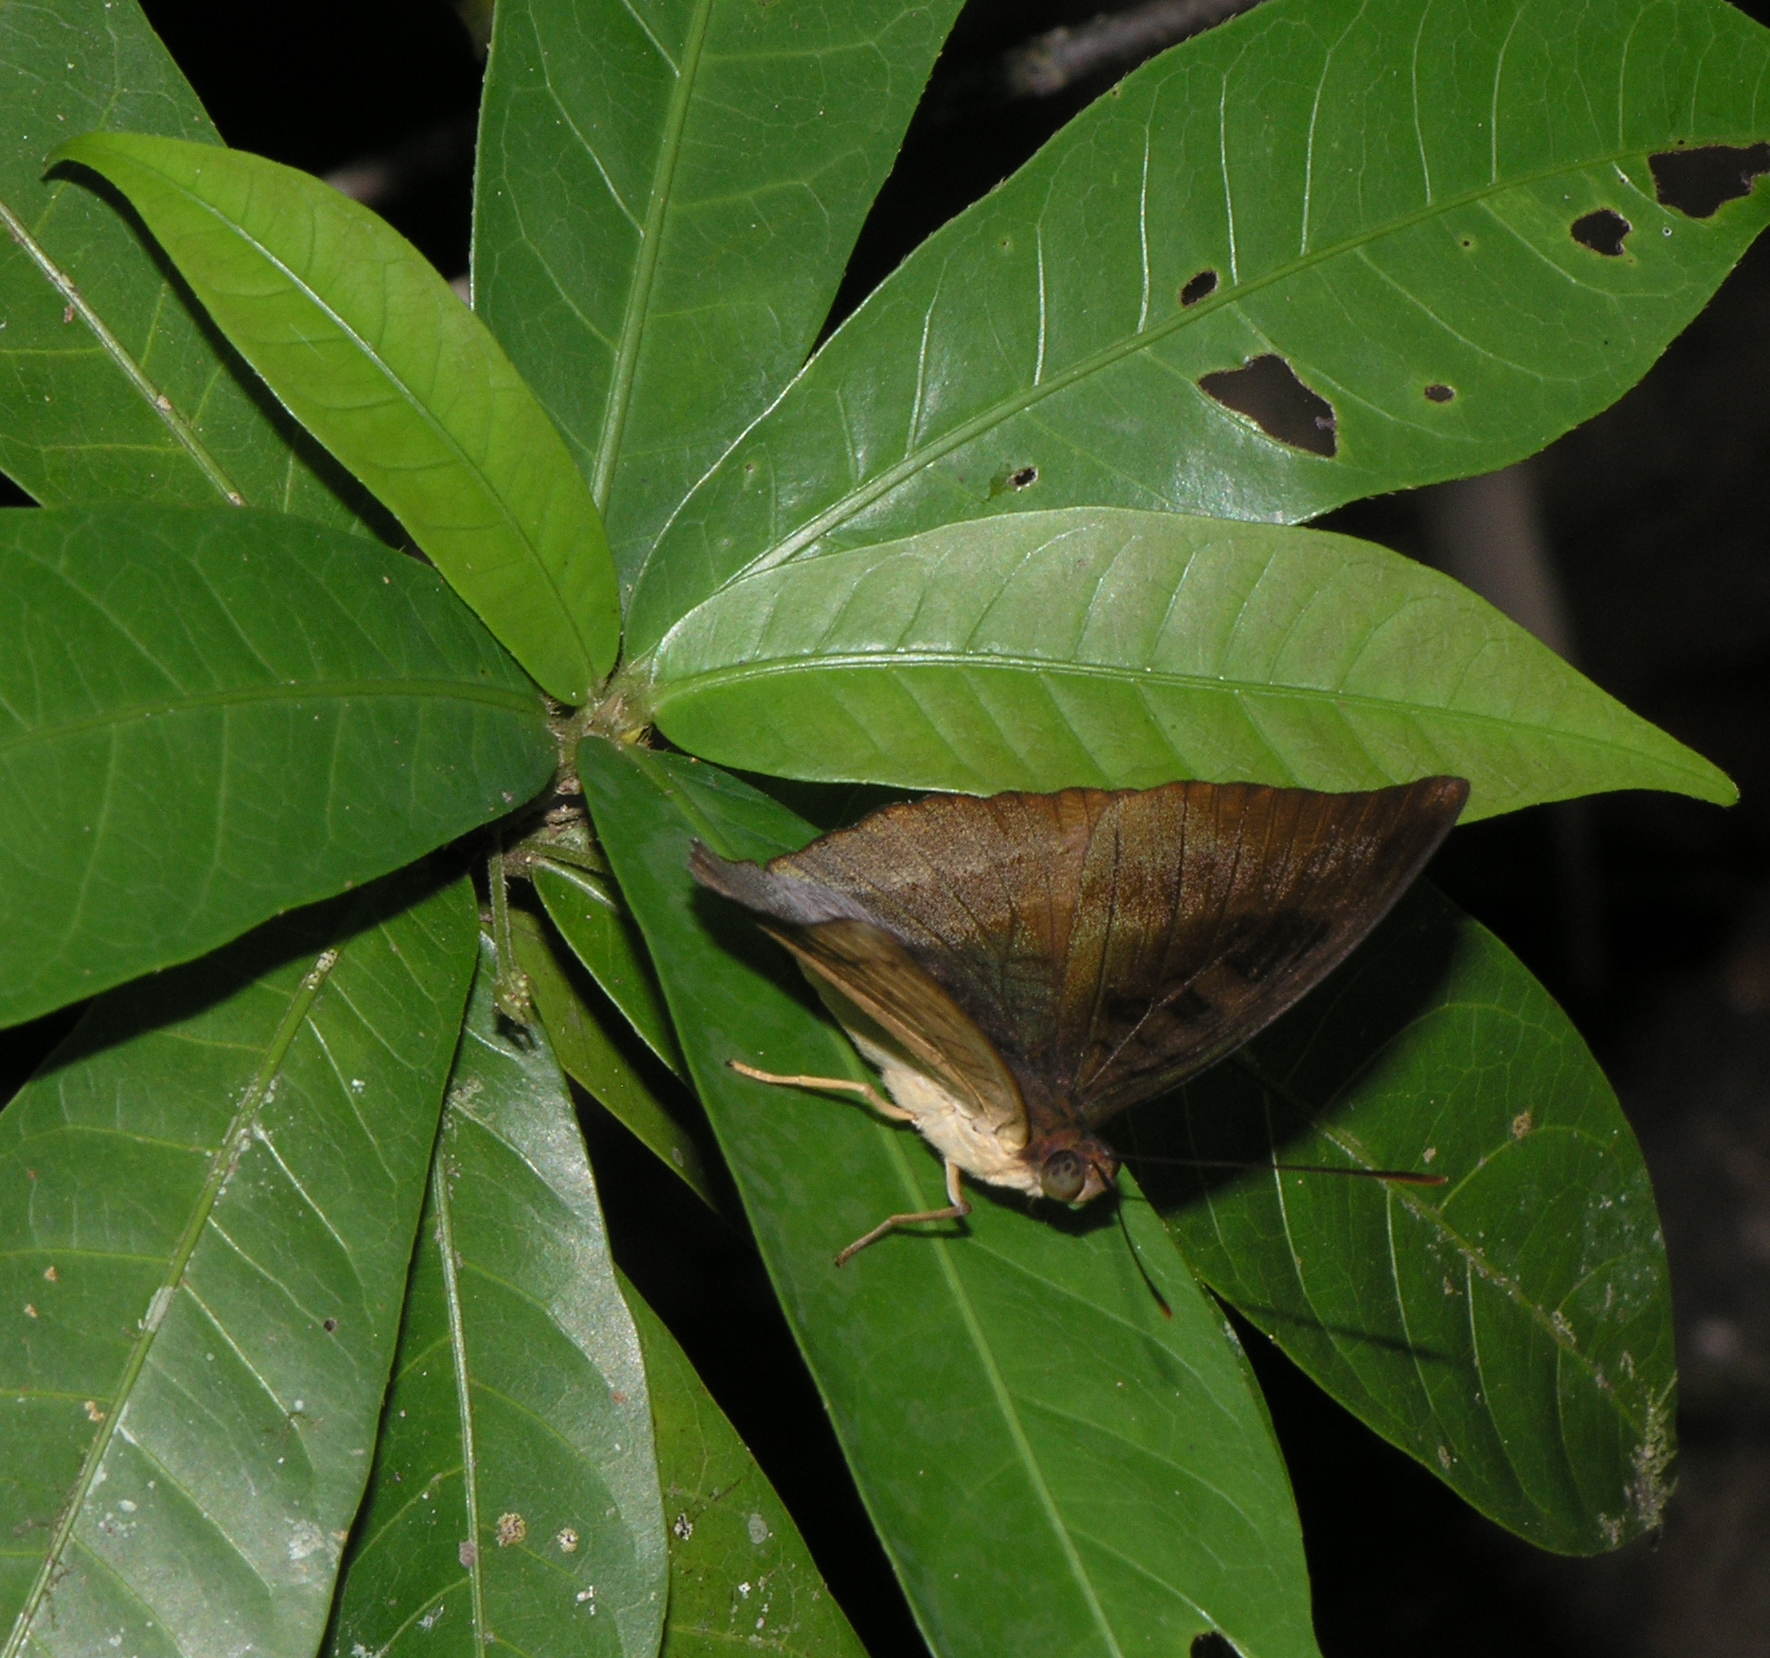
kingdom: Animalia
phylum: Arthropoda
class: Insecta
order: Lepidoptera
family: Nymphalidae
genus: Euthalia
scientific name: Euthalia monina
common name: Powdered baron
